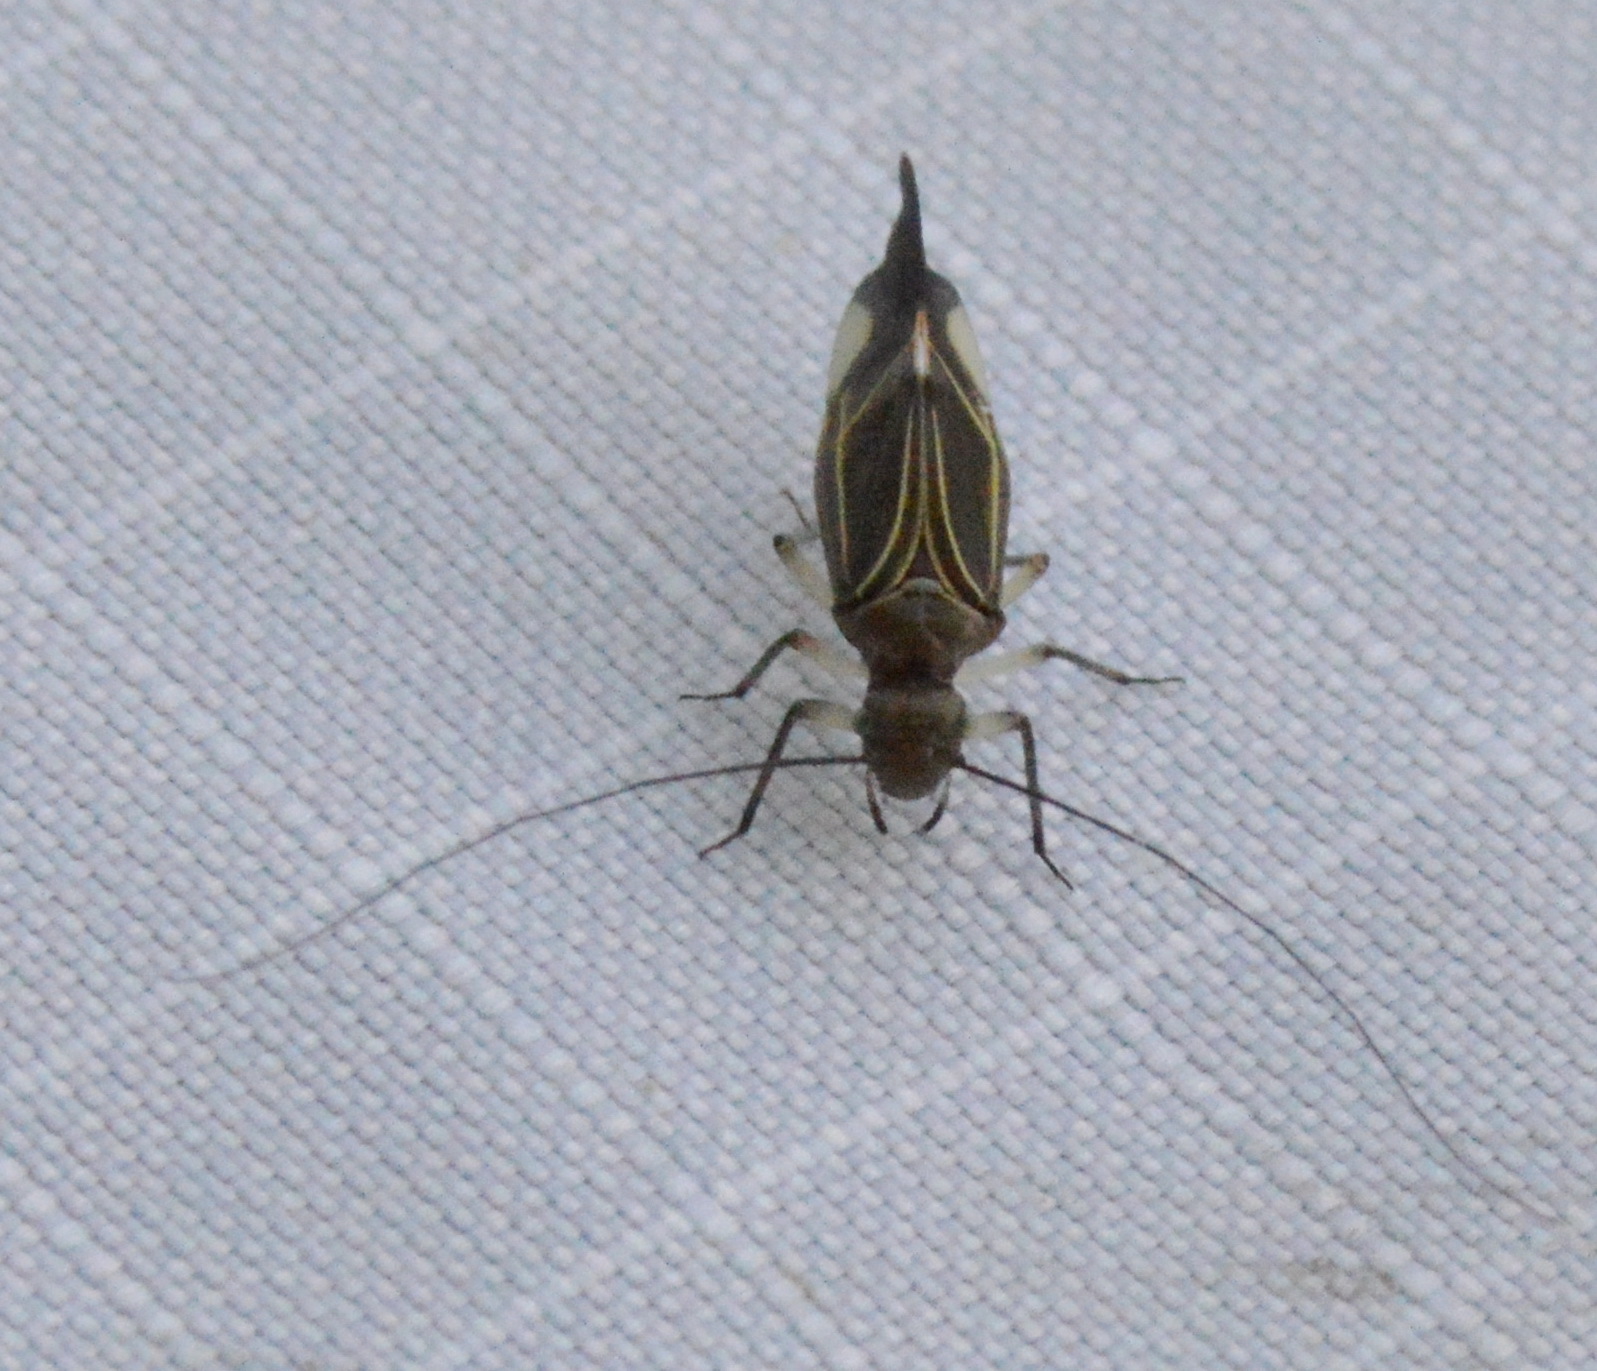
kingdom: Animalia
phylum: Arthropoda
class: Insecta
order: Psocodea
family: Psocidae
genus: Cerastipsocus
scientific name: Cerastipsocus venosus
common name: Tree cattle
